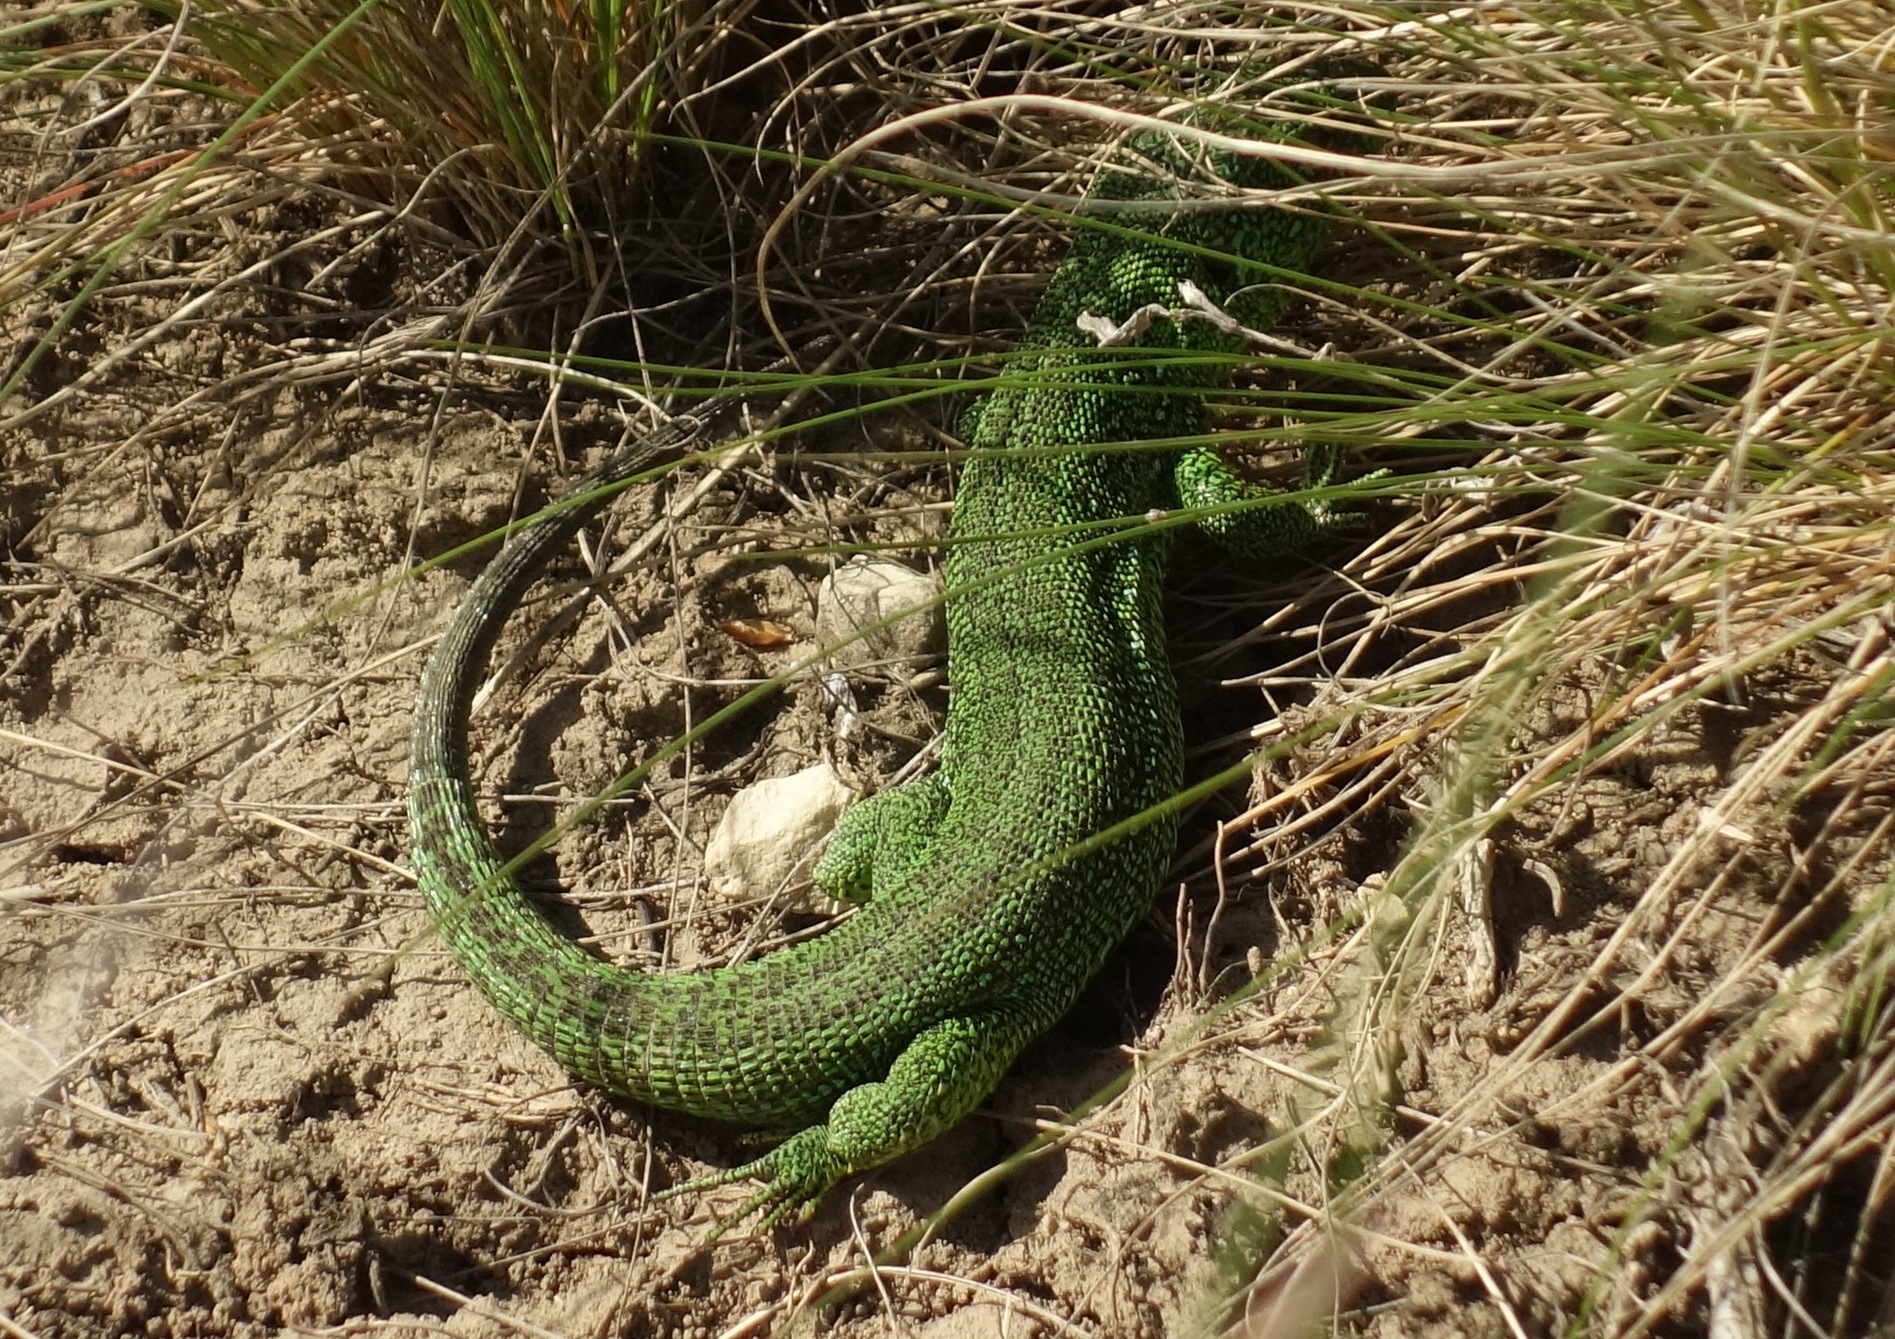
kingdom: Animalia
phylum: Chordata
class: Squamata
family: Lacertidae
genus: Lacerta
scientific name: Lacerta agilis
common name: Sand lizard
